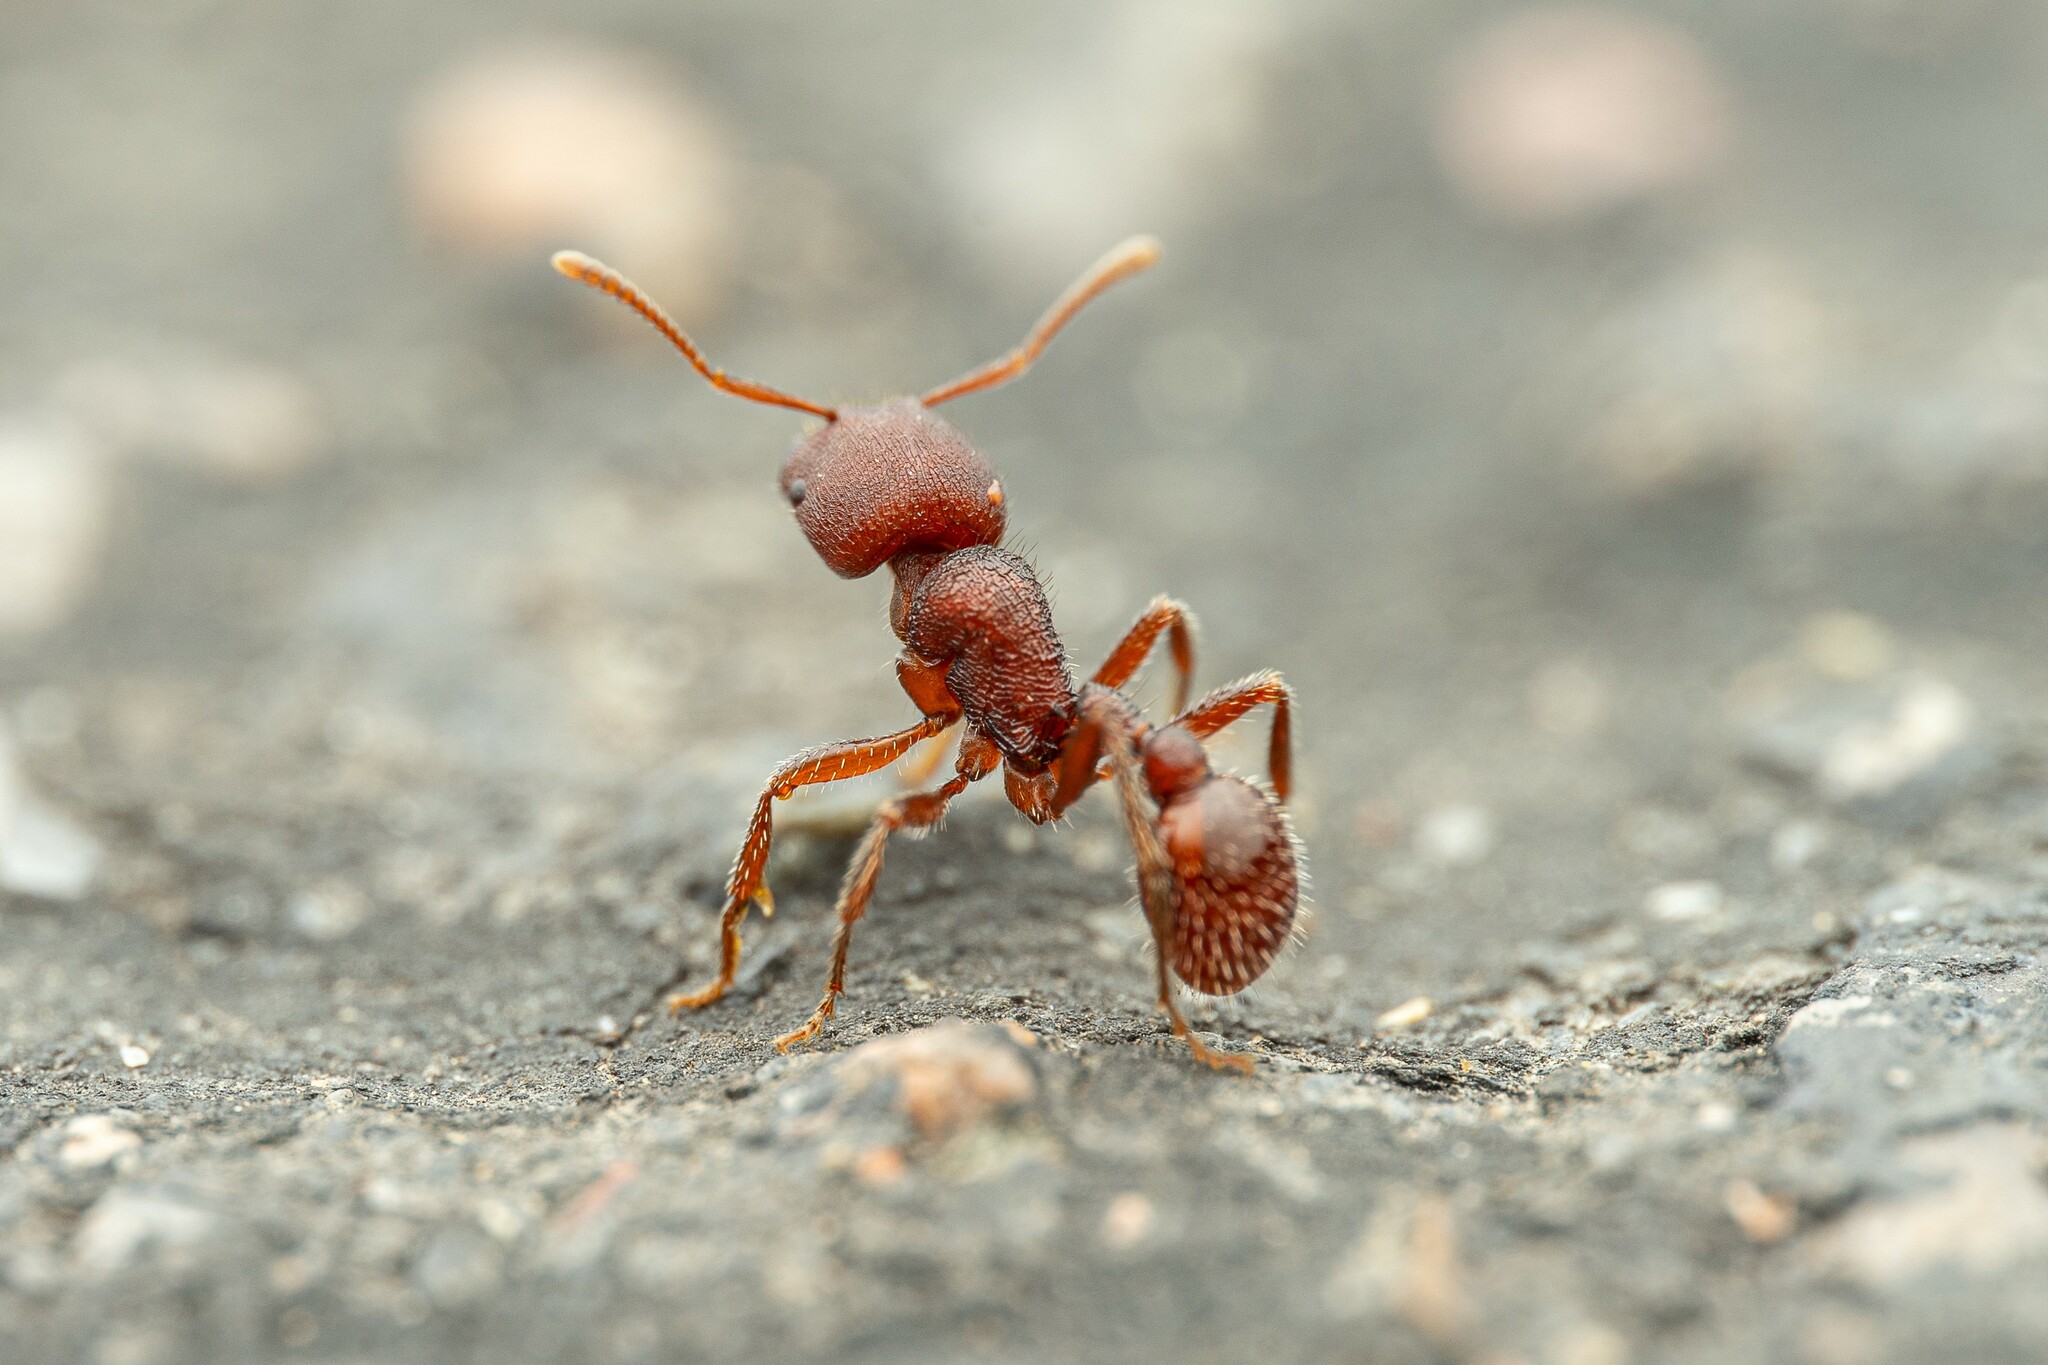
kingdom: Animalia
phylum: Arthropoda
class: Insecta
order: Hymenoptera
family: Formicidae
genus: Pogonomyrmex
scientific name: Pogonomyrmex huachucanus
